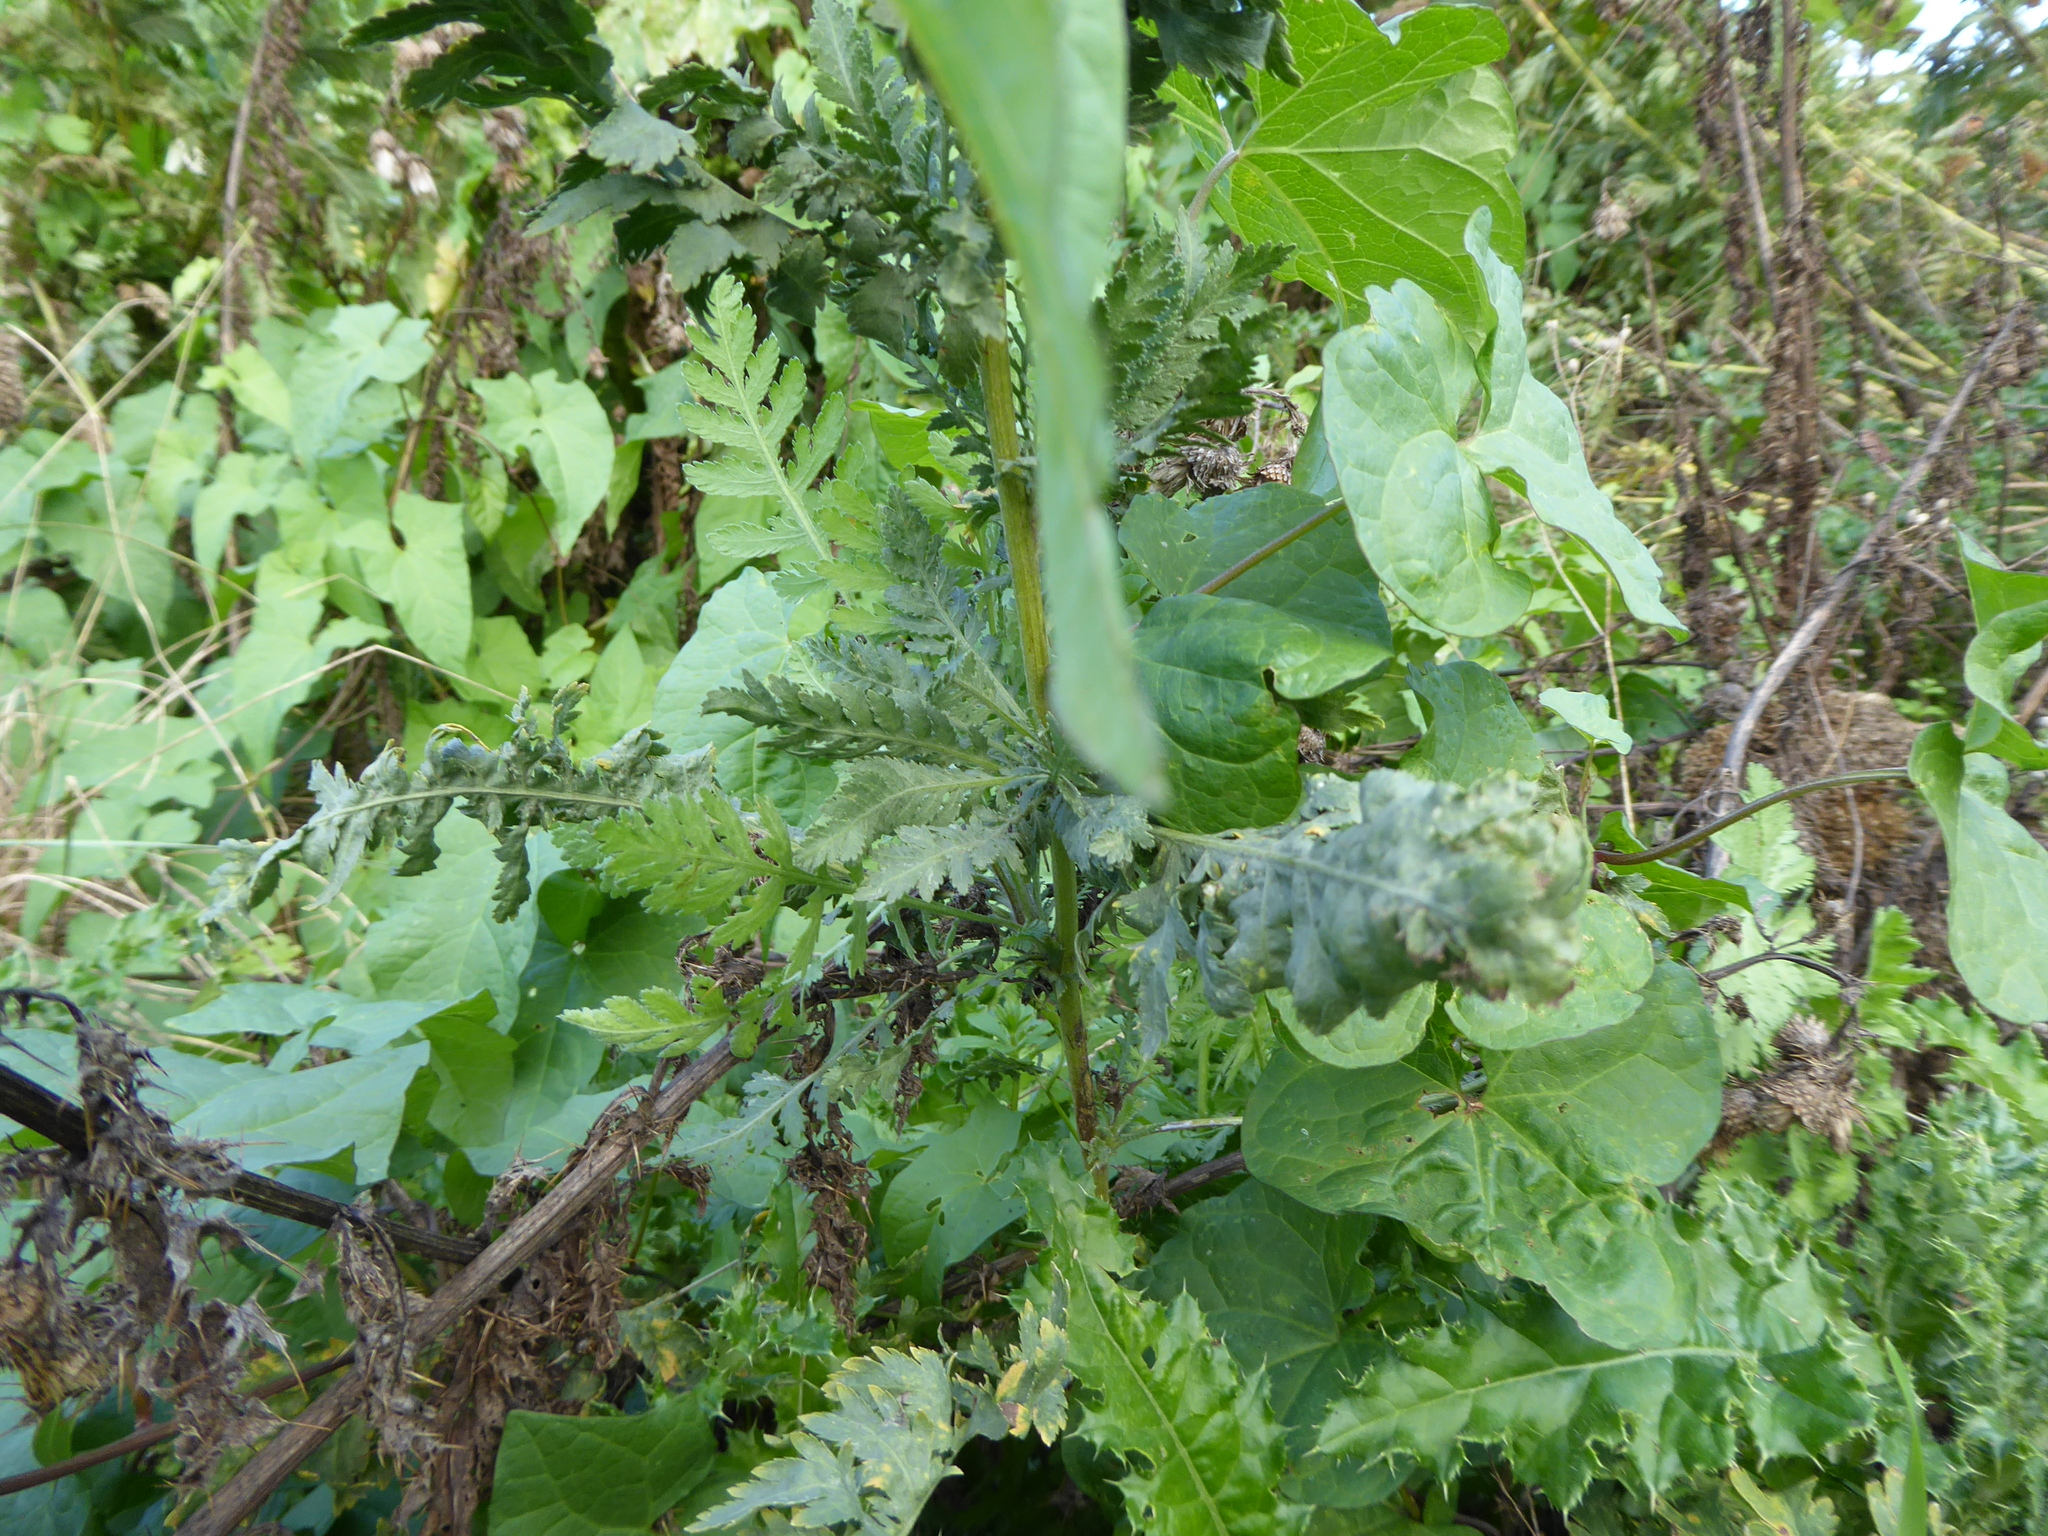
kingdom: Plantae
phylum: Tracheophyta
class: Magnoliopsida
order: Asterales
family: Asteraceae
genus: Achillea
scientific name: Achillea filipendulina
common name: Fernleaf yarrow
